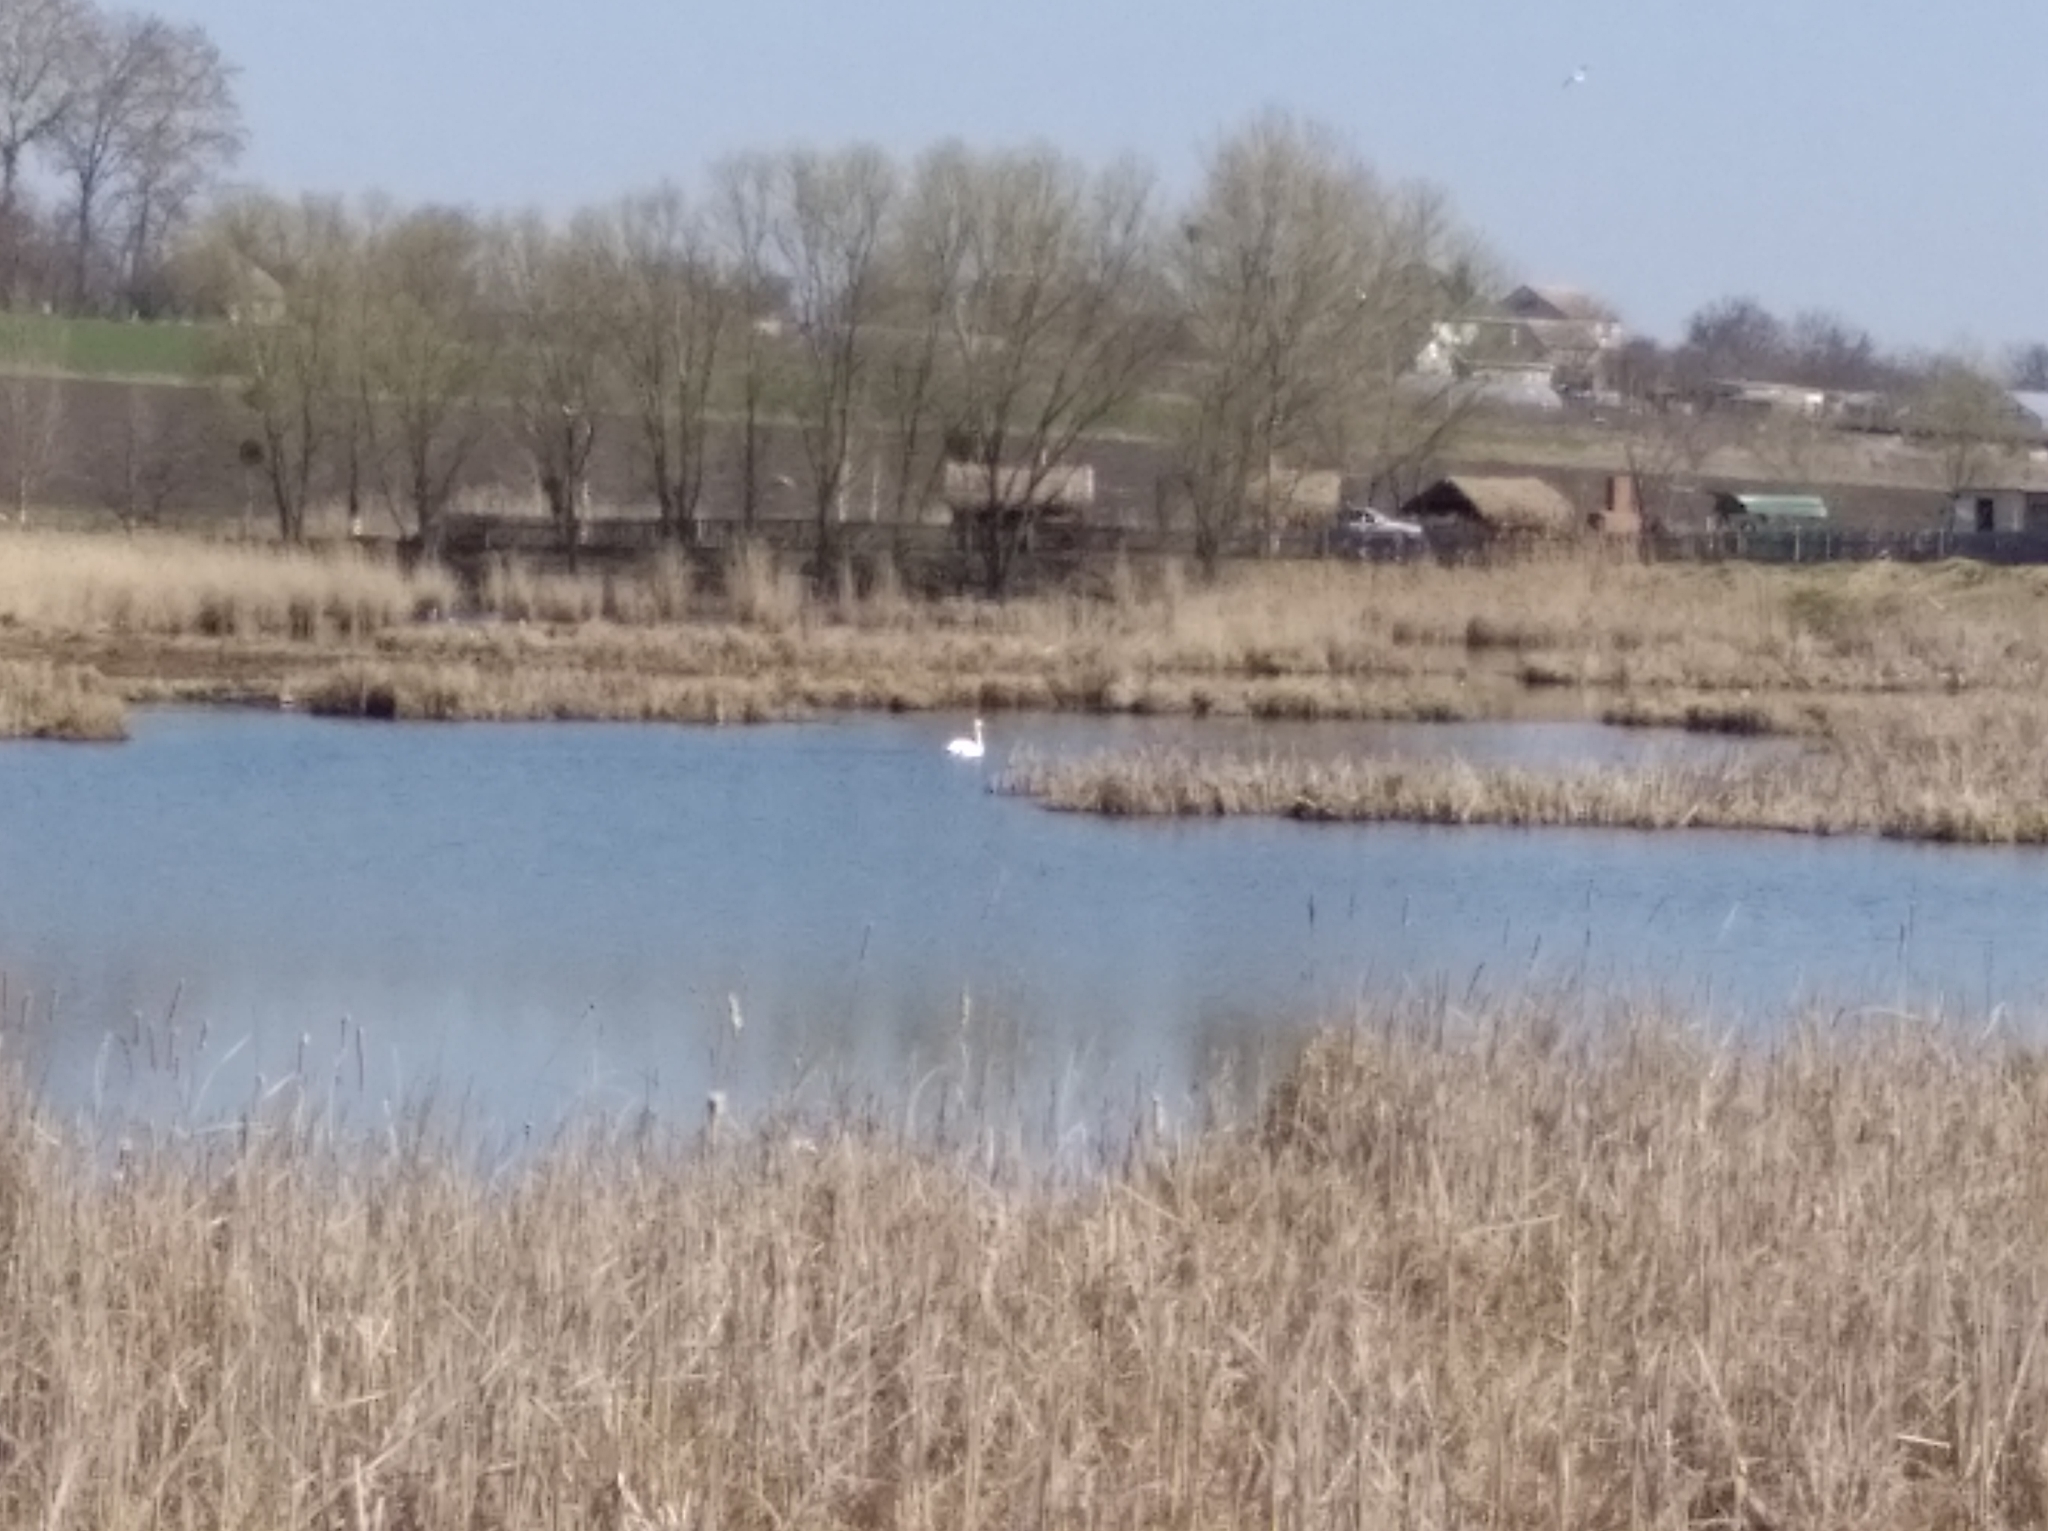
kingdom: Animalia
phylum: Chordata
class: Aves
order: Anseriformes
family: Anatidae
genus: Cygnus
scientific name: Cygnus olor
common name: Mute swan
